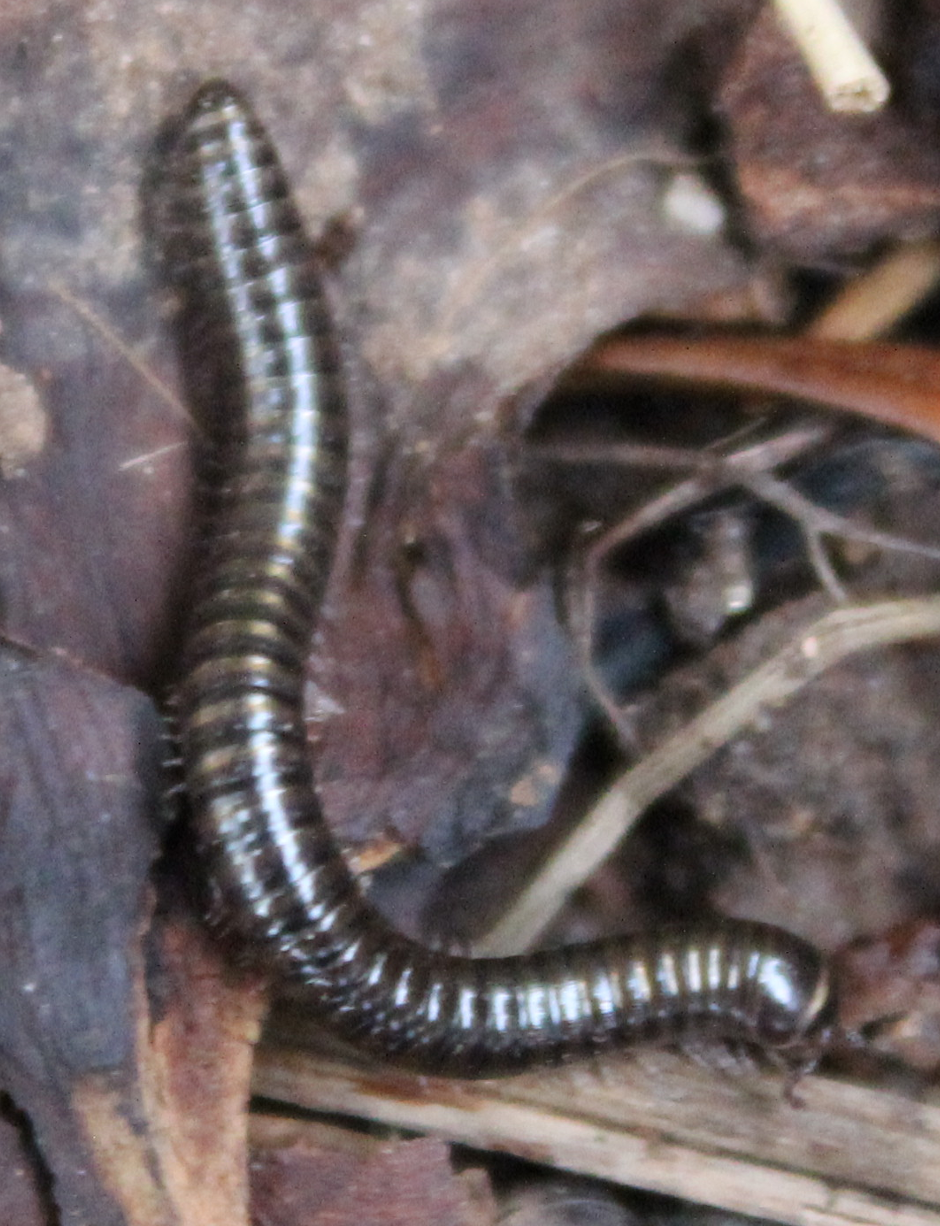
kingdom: Animalia
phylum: Arthropoda
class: Diplopoda
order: Julida
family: Julidae
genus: Cylindroiulus
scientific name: Cylindroiulus caeruleocinctus
